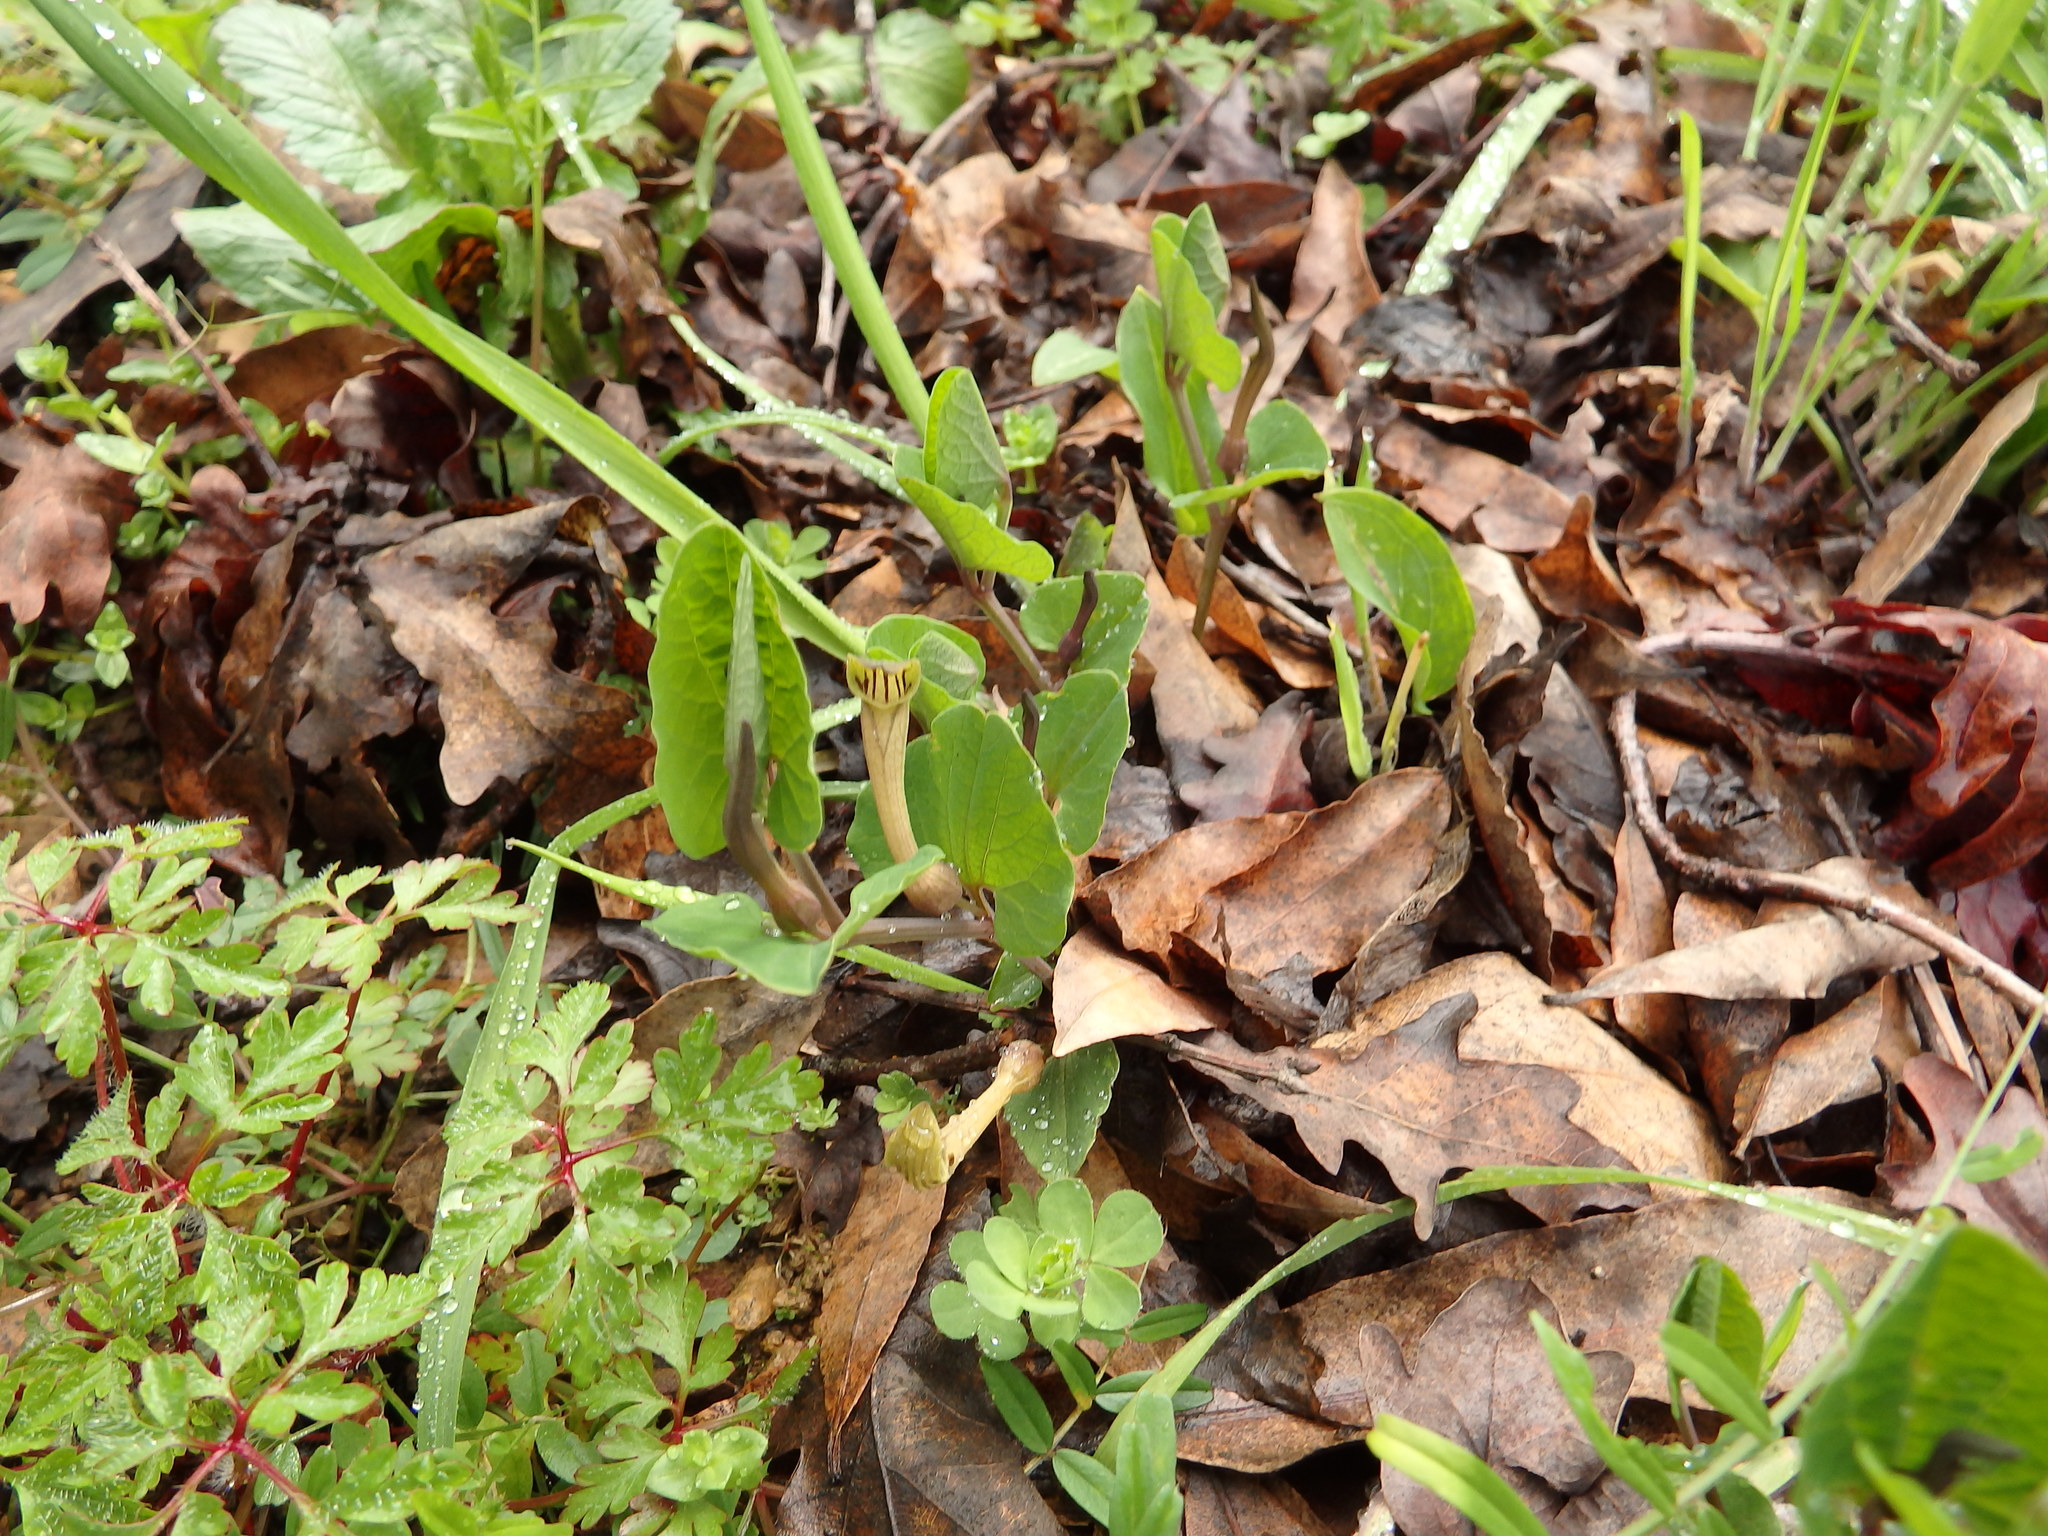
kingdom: Plantae
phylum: Tracheophyta
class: Magnoliopsida
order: Piperales
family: Aristolochiaceae
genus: Aristolochia
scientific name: Aristolochia paucinervis
